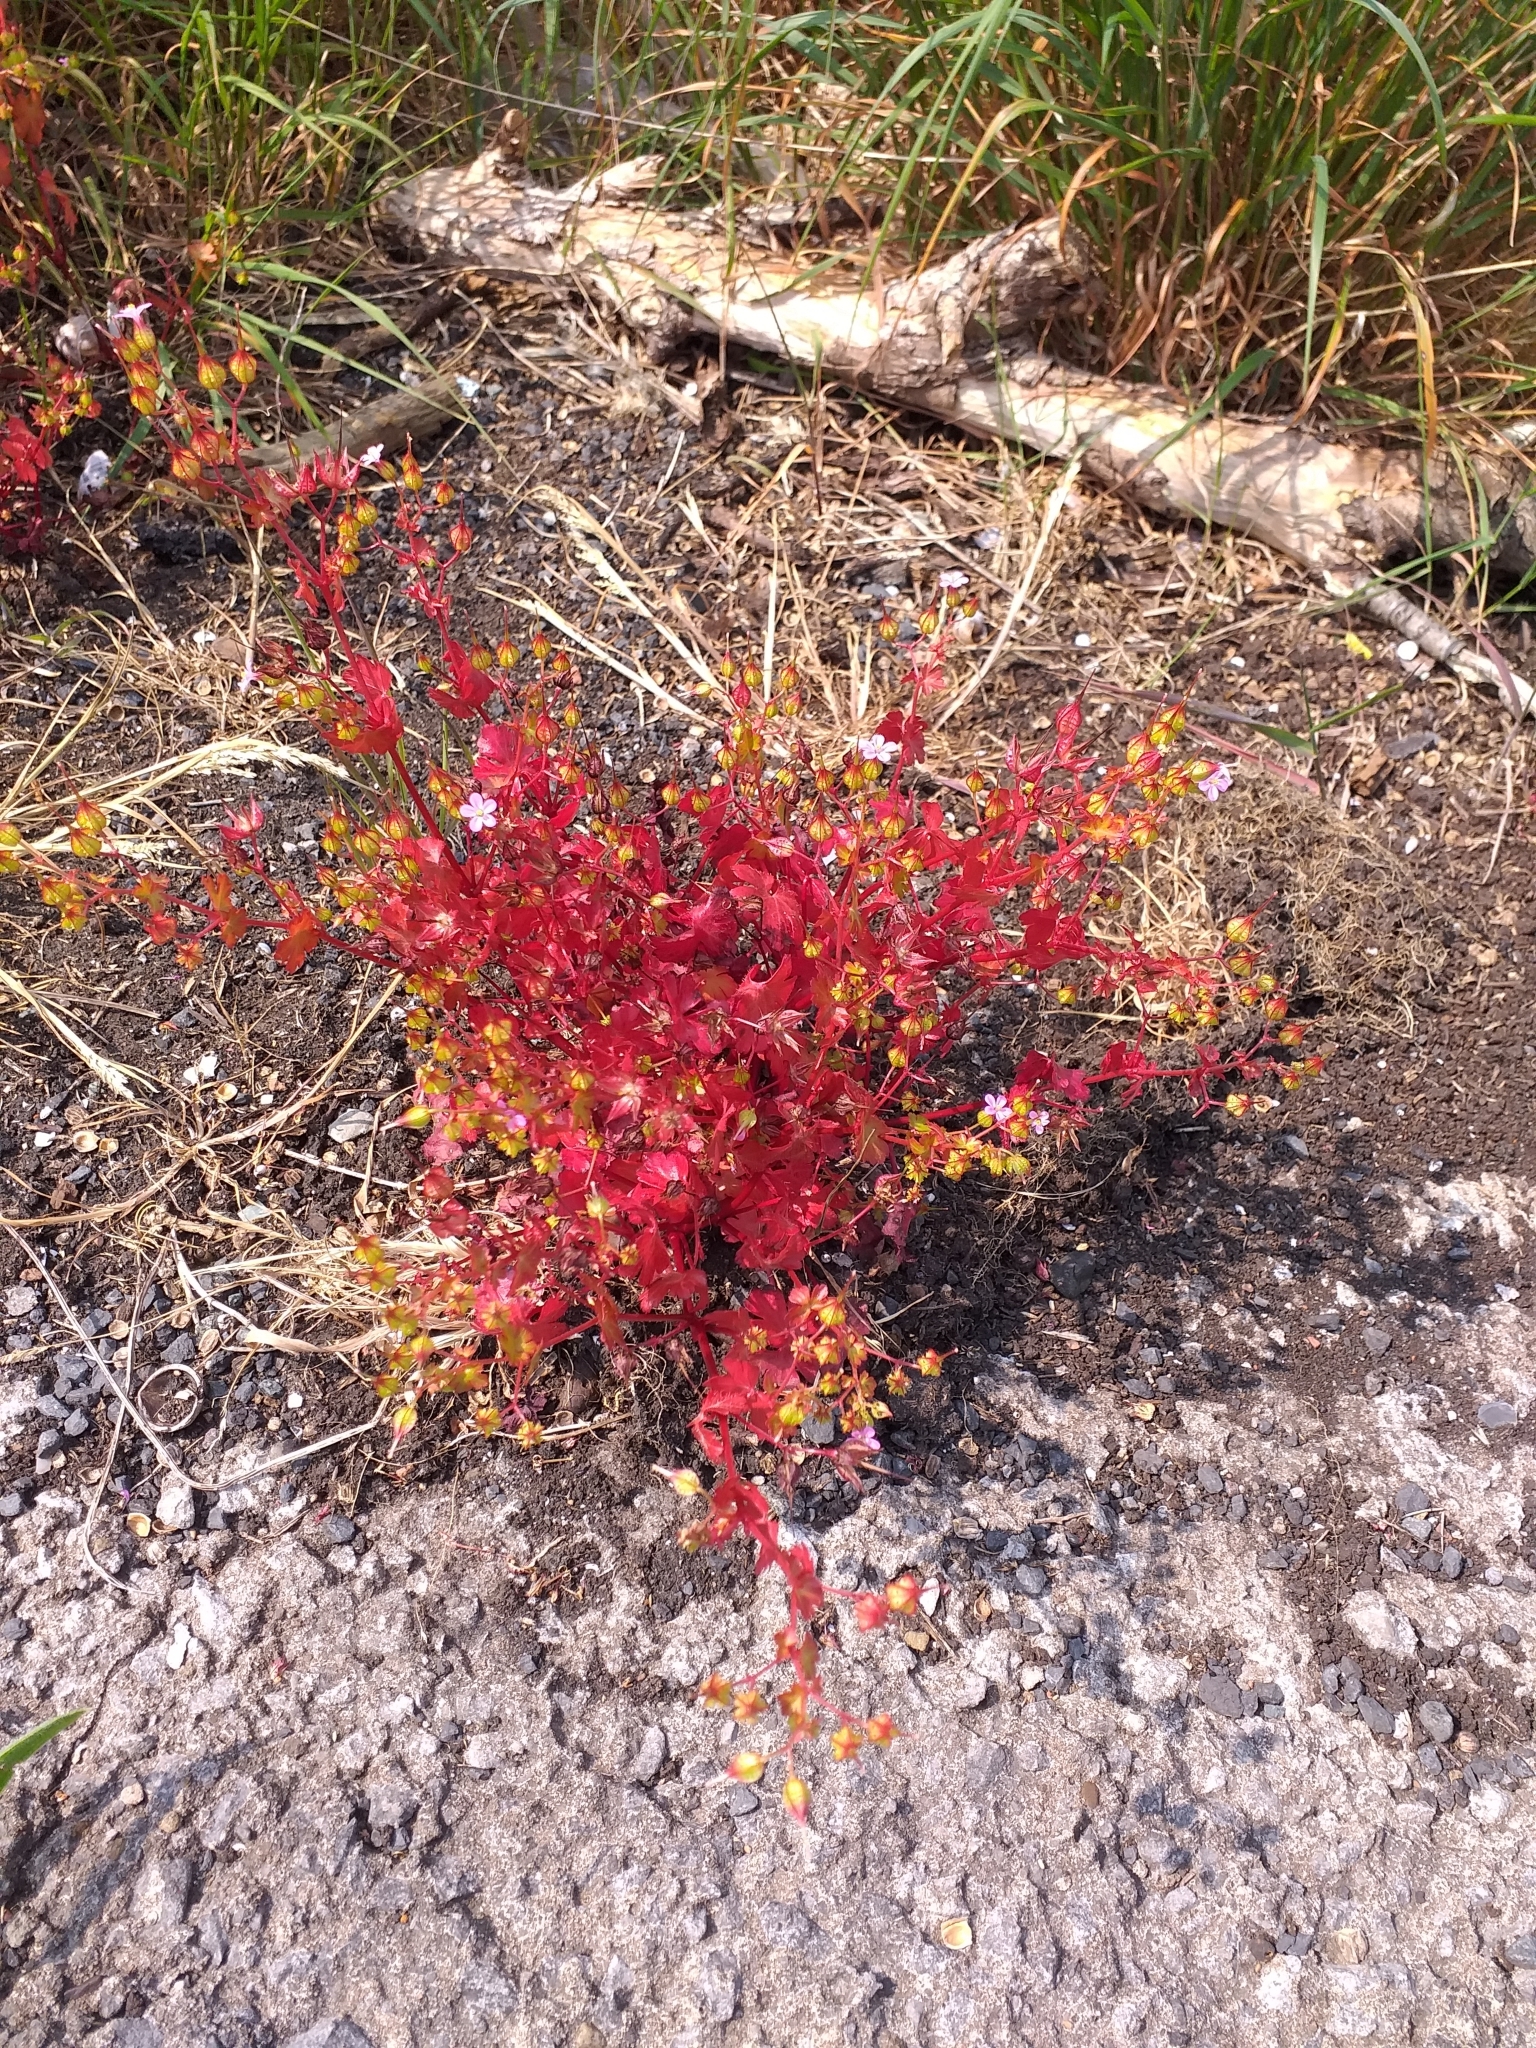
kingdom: Plantae
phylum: Tracheophyta
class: Magnoliopsida
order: Geraniales
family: Geraniaceae
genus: Geranium
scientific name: Geranium lucidum
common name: Shining crane's-bill
